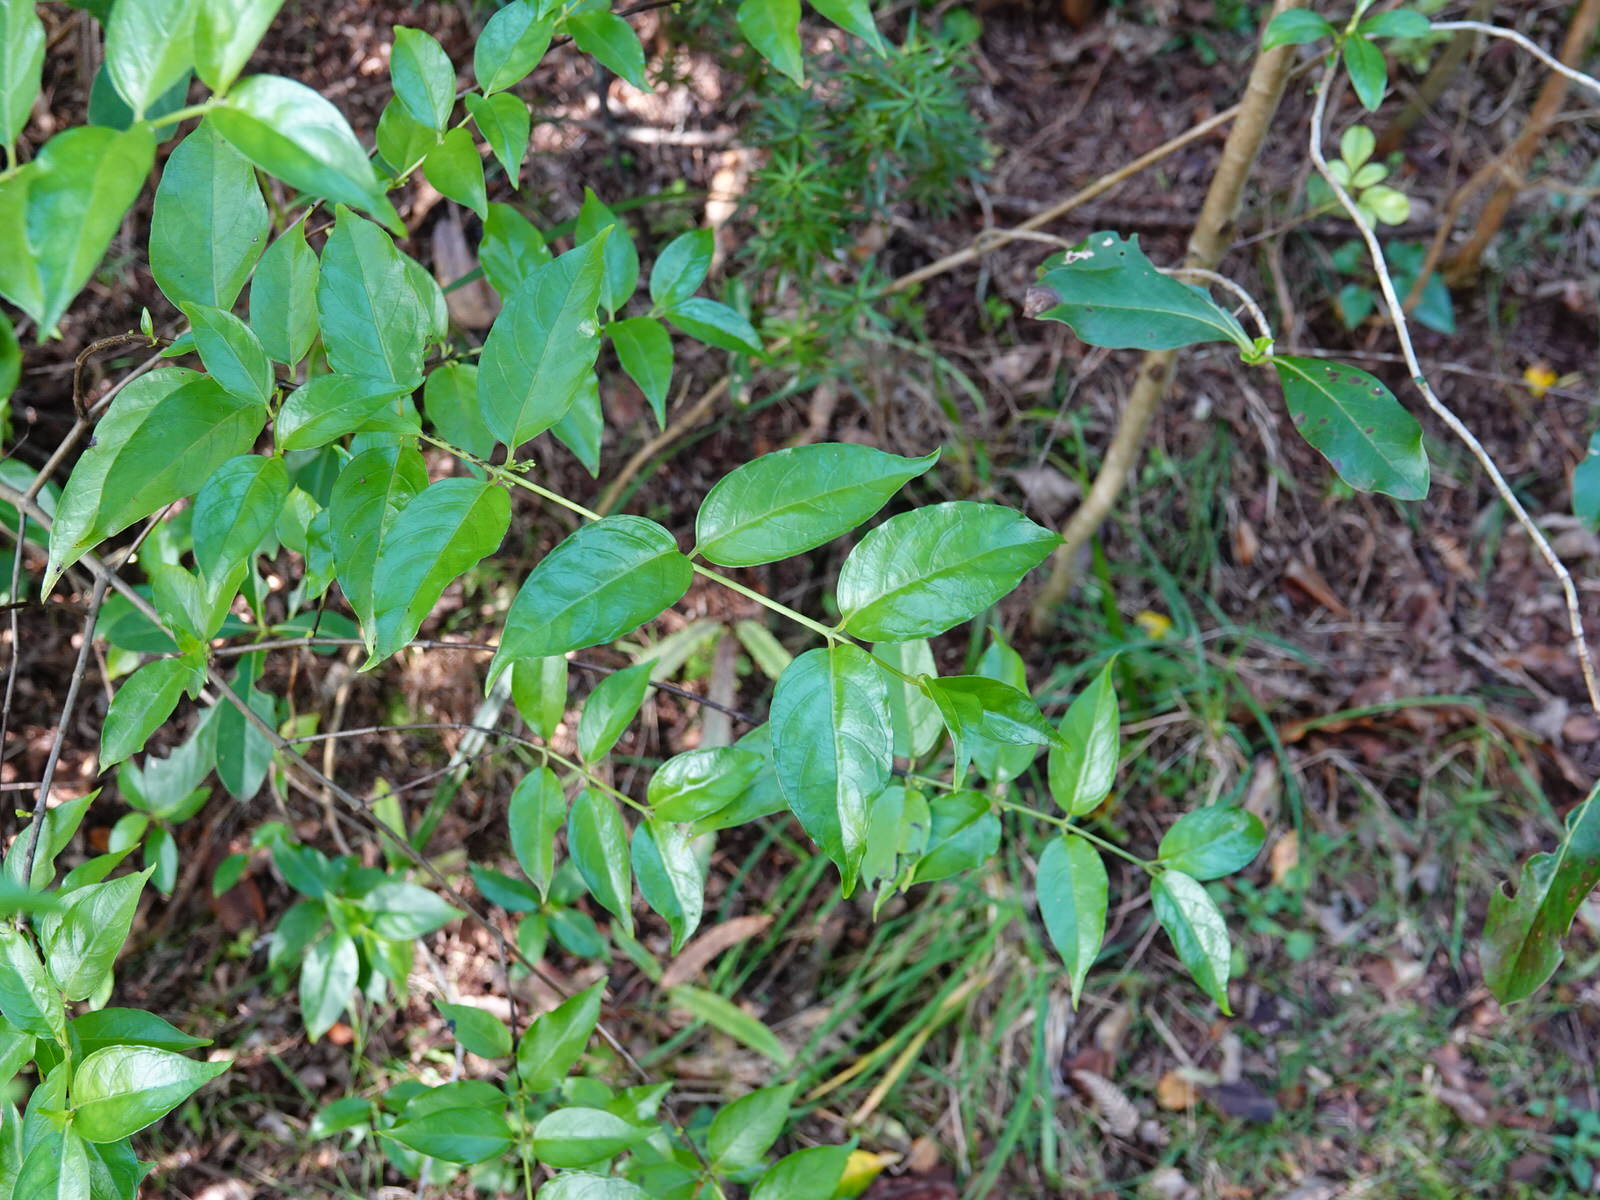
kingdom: Plantae
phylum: Tracheophyta
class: Magnoliopsida
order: Gentianales
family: Loganiaceae
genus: Geniostoma
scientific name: Geniostoma ligustrifolium
